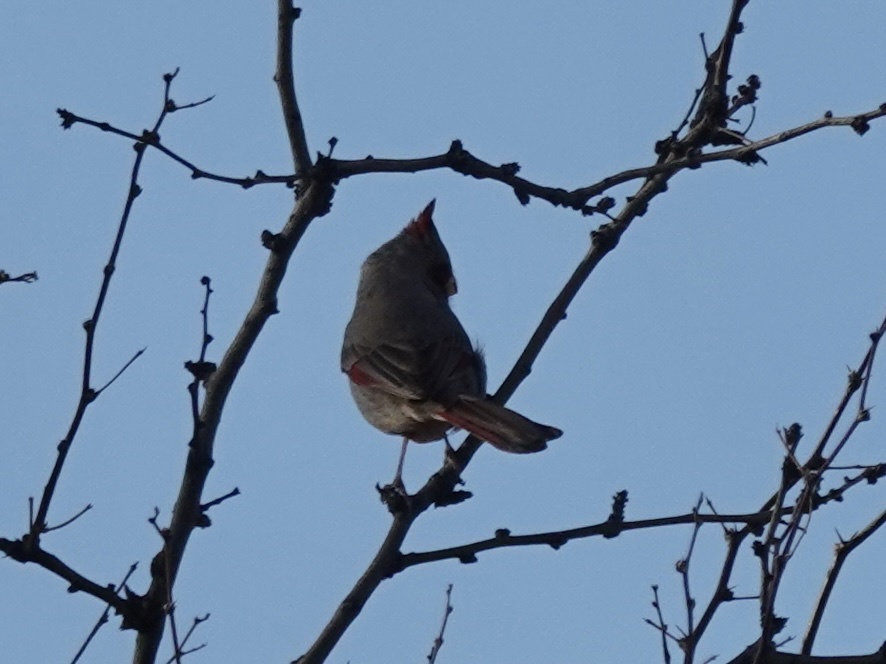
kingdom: Animalia
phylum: Chordata
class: Aves
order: Passeriformes
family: Cardinalidae
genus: Cardinalis
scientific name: Cardinalis sinuatus
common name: Pyrrhuloxia
